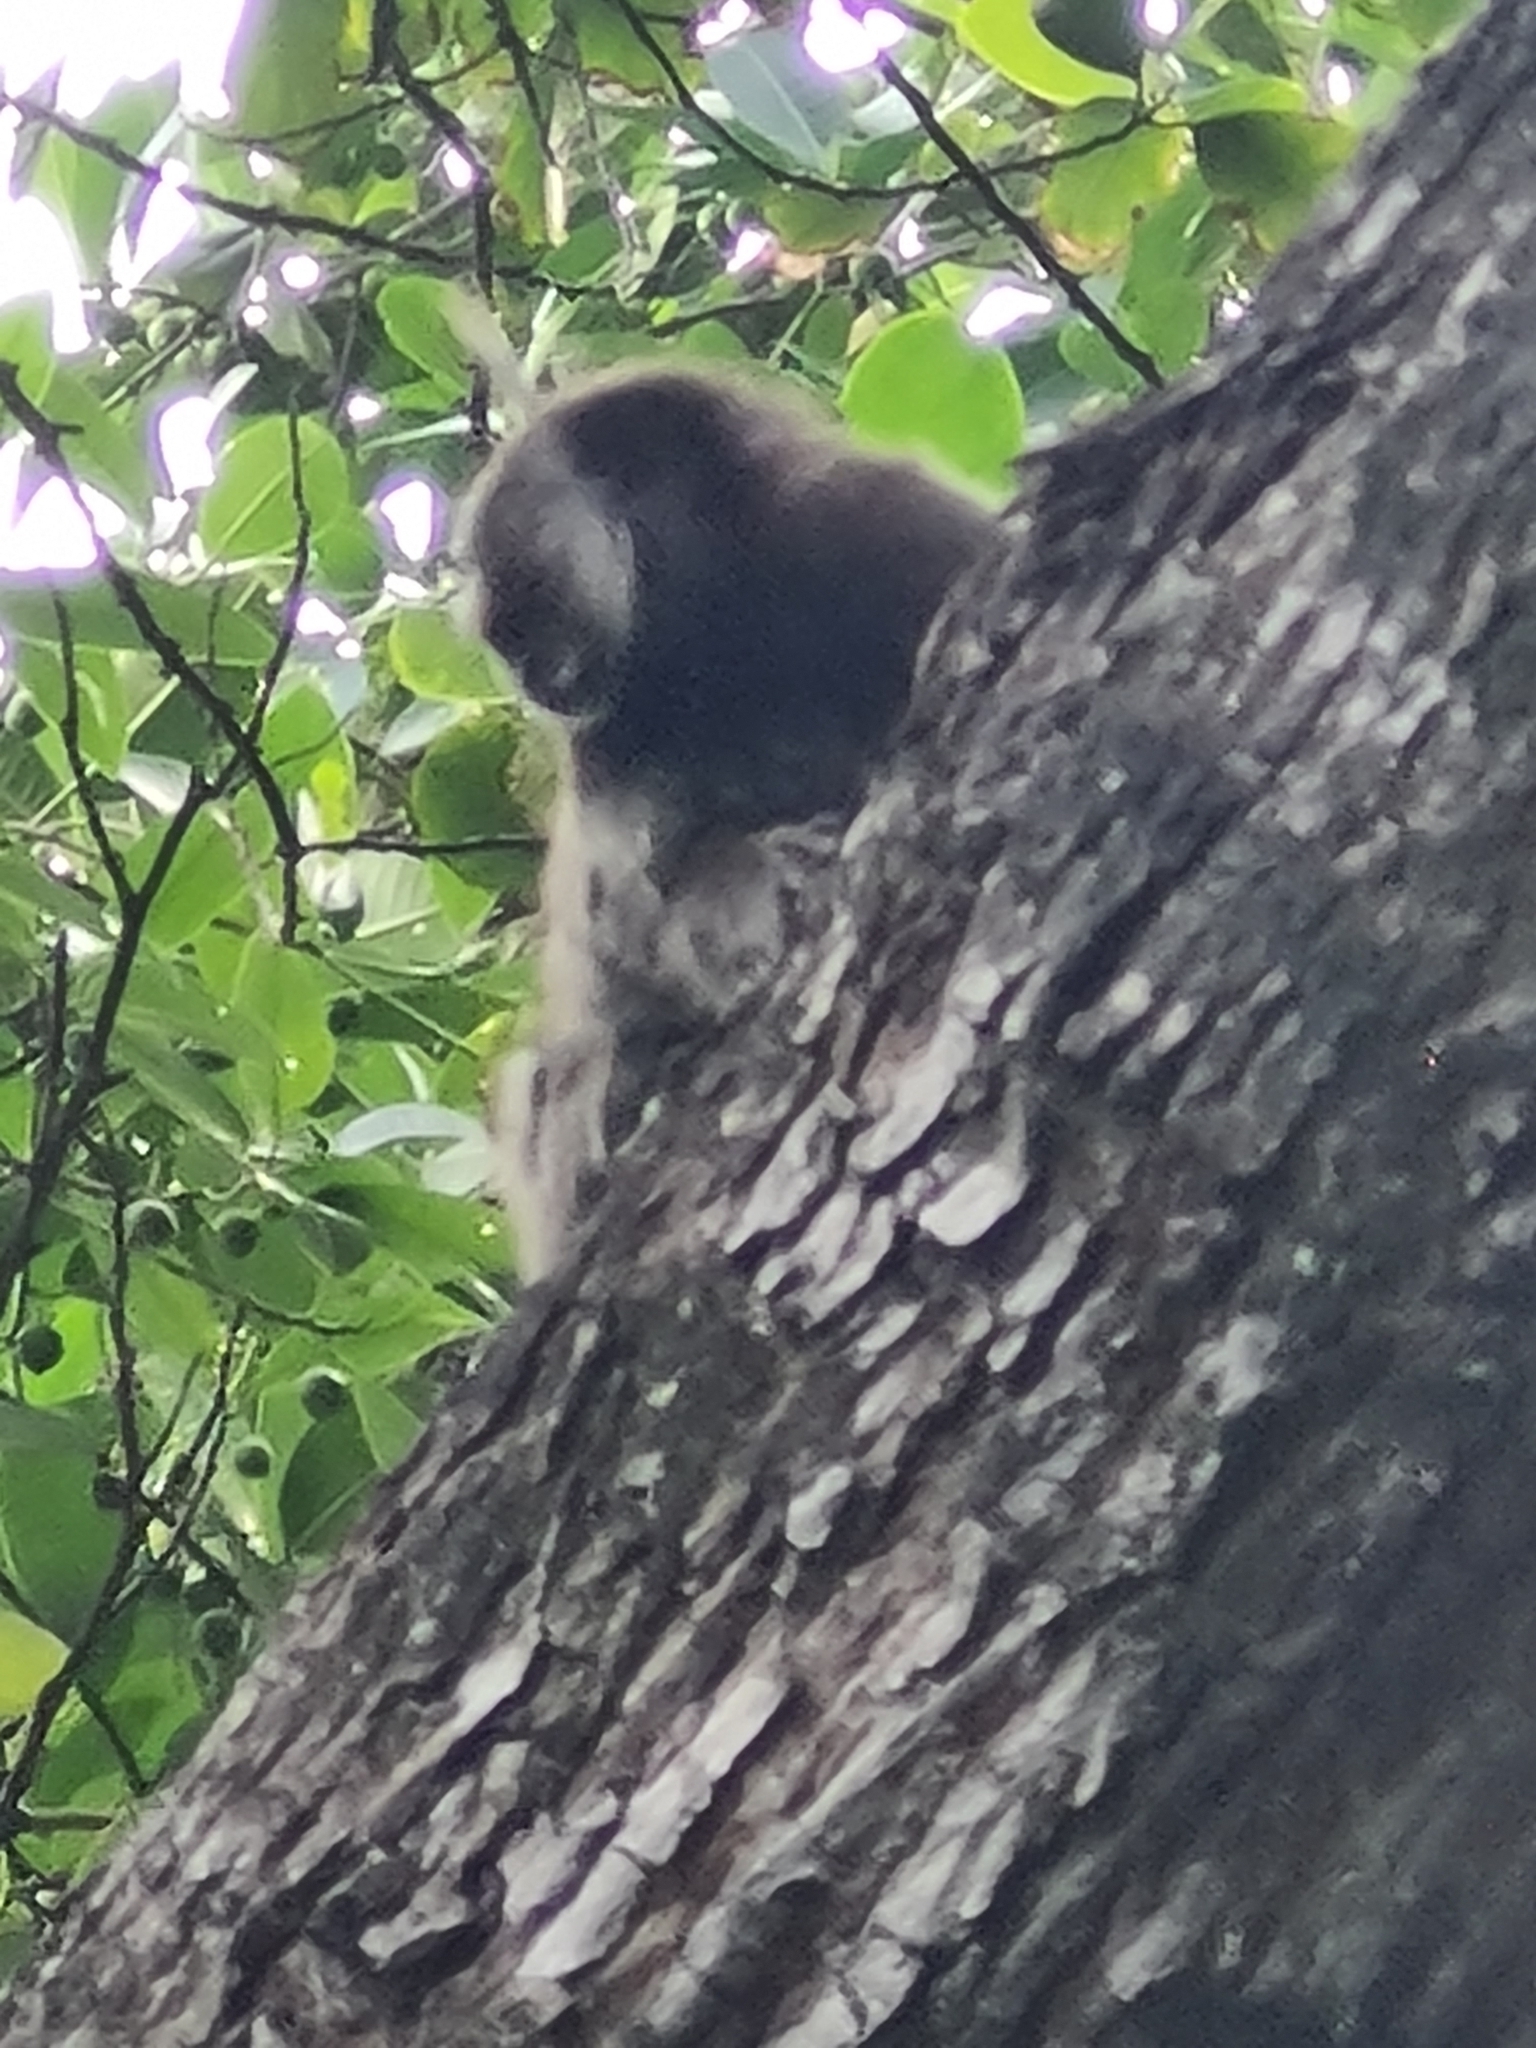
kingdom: Animalia
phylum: Chordata
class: Mammalia
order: Primates
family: Callitrichidae
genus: Callithrix
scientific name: Callithrix jacchus
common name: Common marmoset
